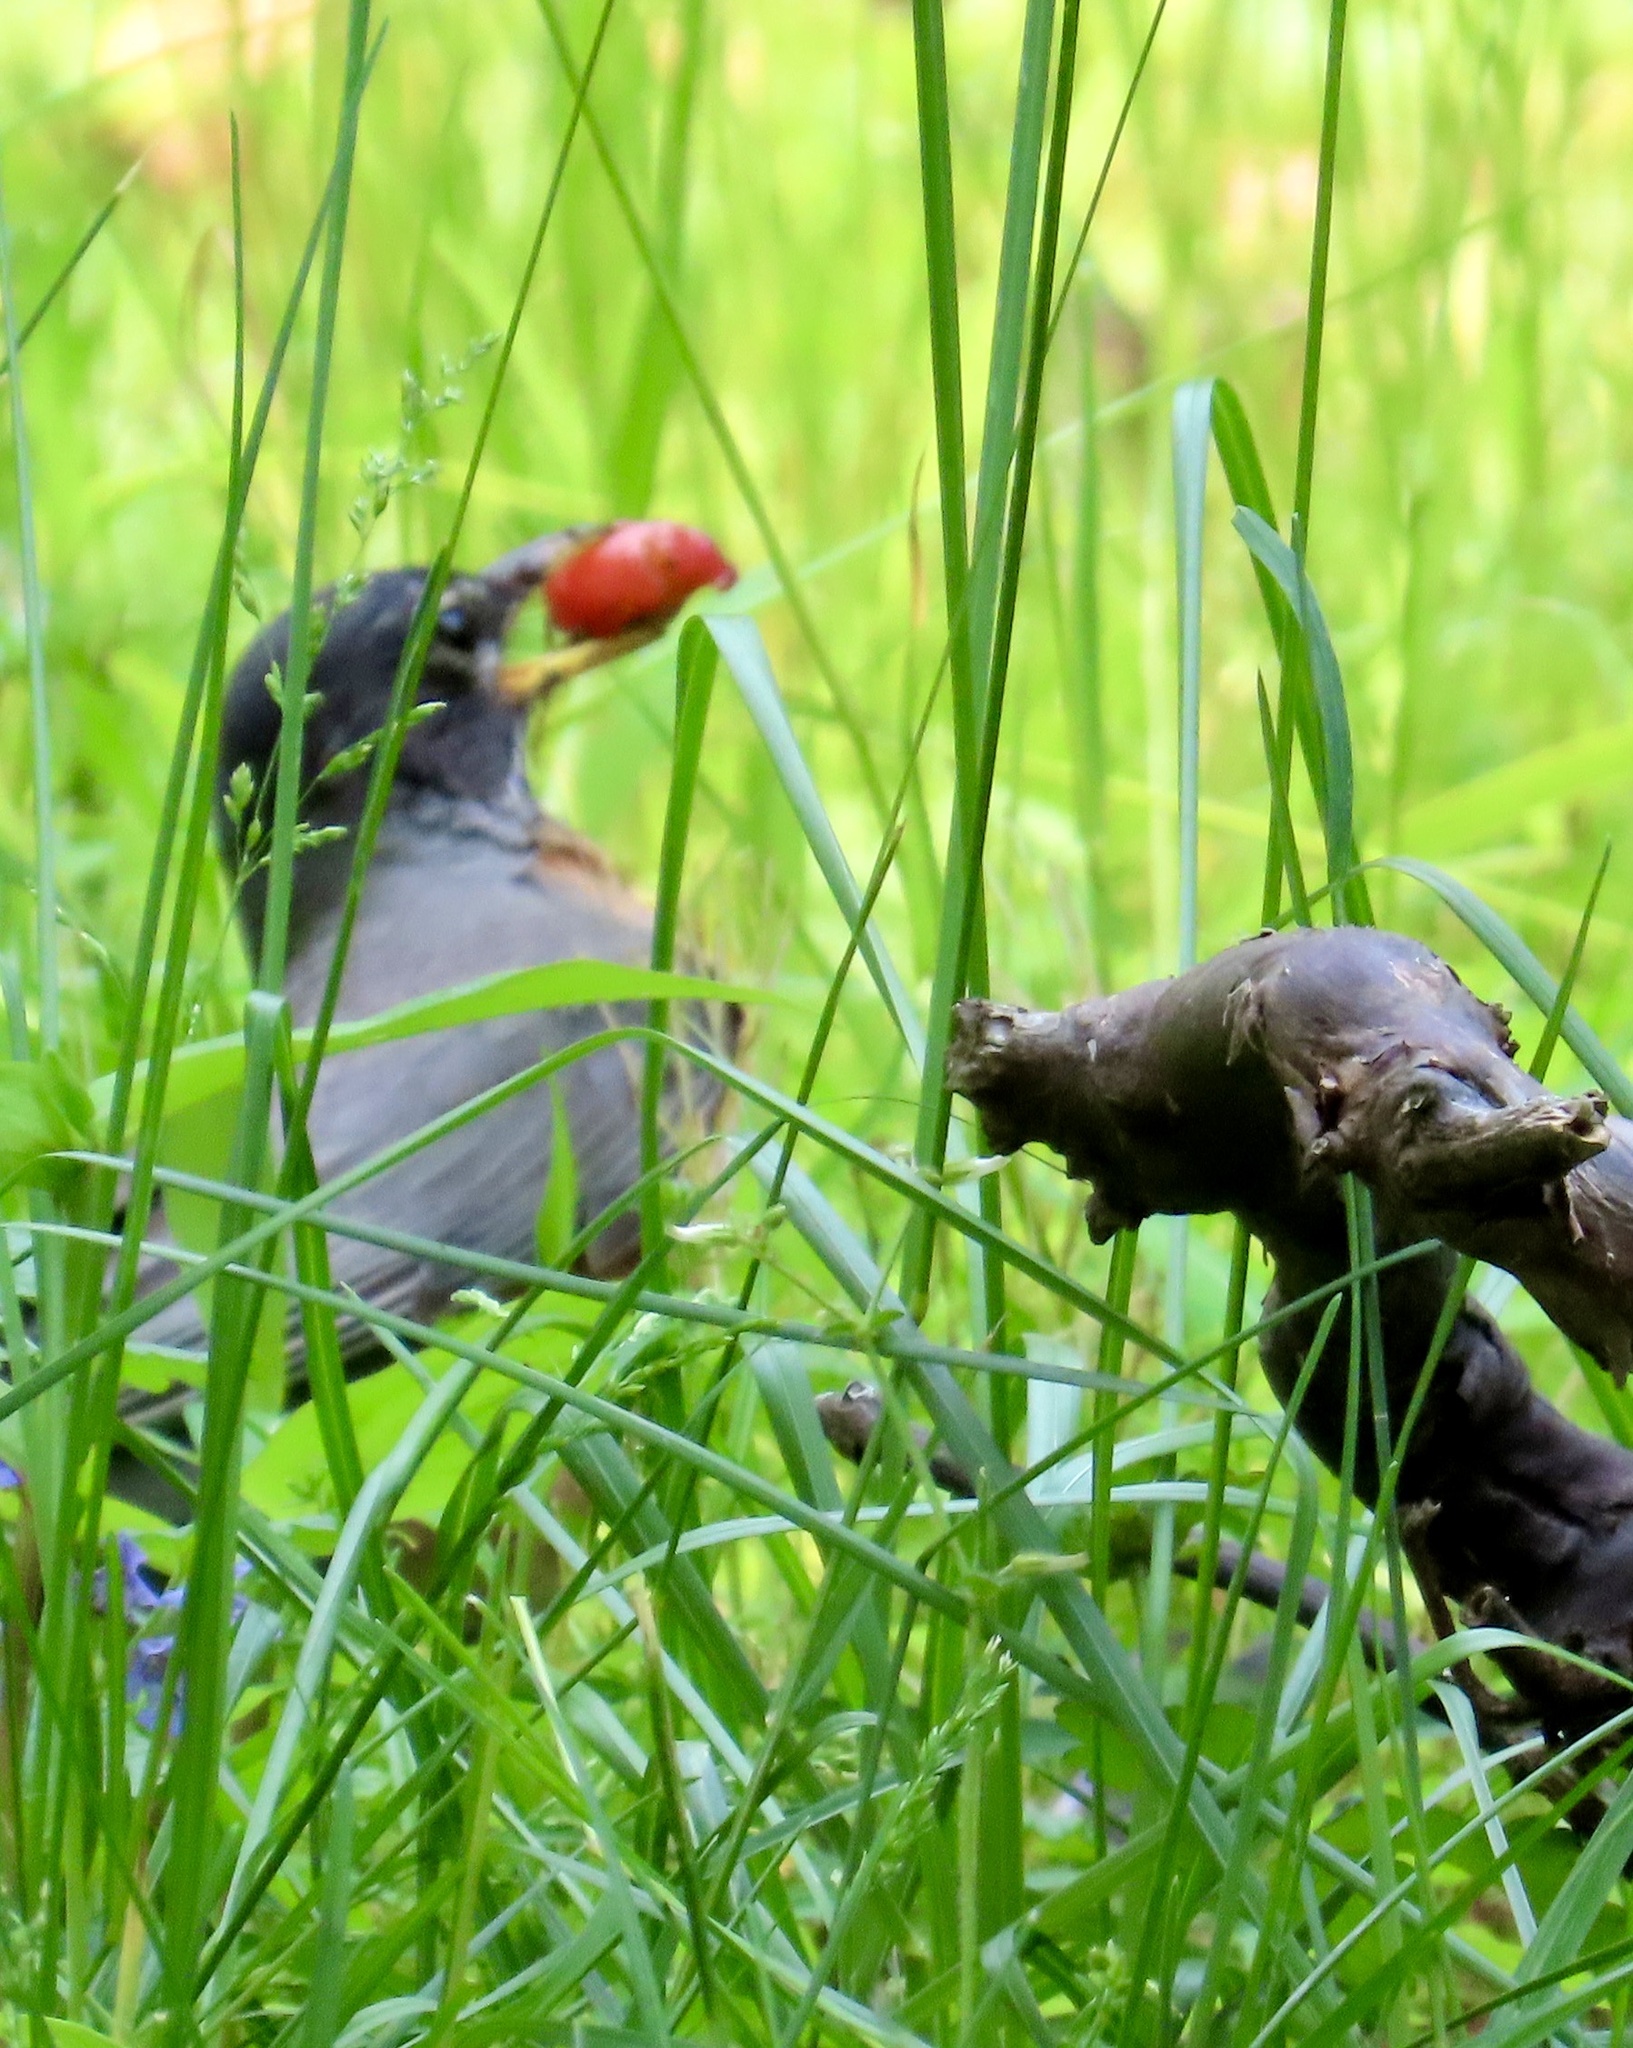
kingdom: Animalia
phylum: Chordata
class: Aves
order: Passeriformes
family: Turdidae
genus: Turdus
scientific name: Turdus migratorius
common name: American robin
